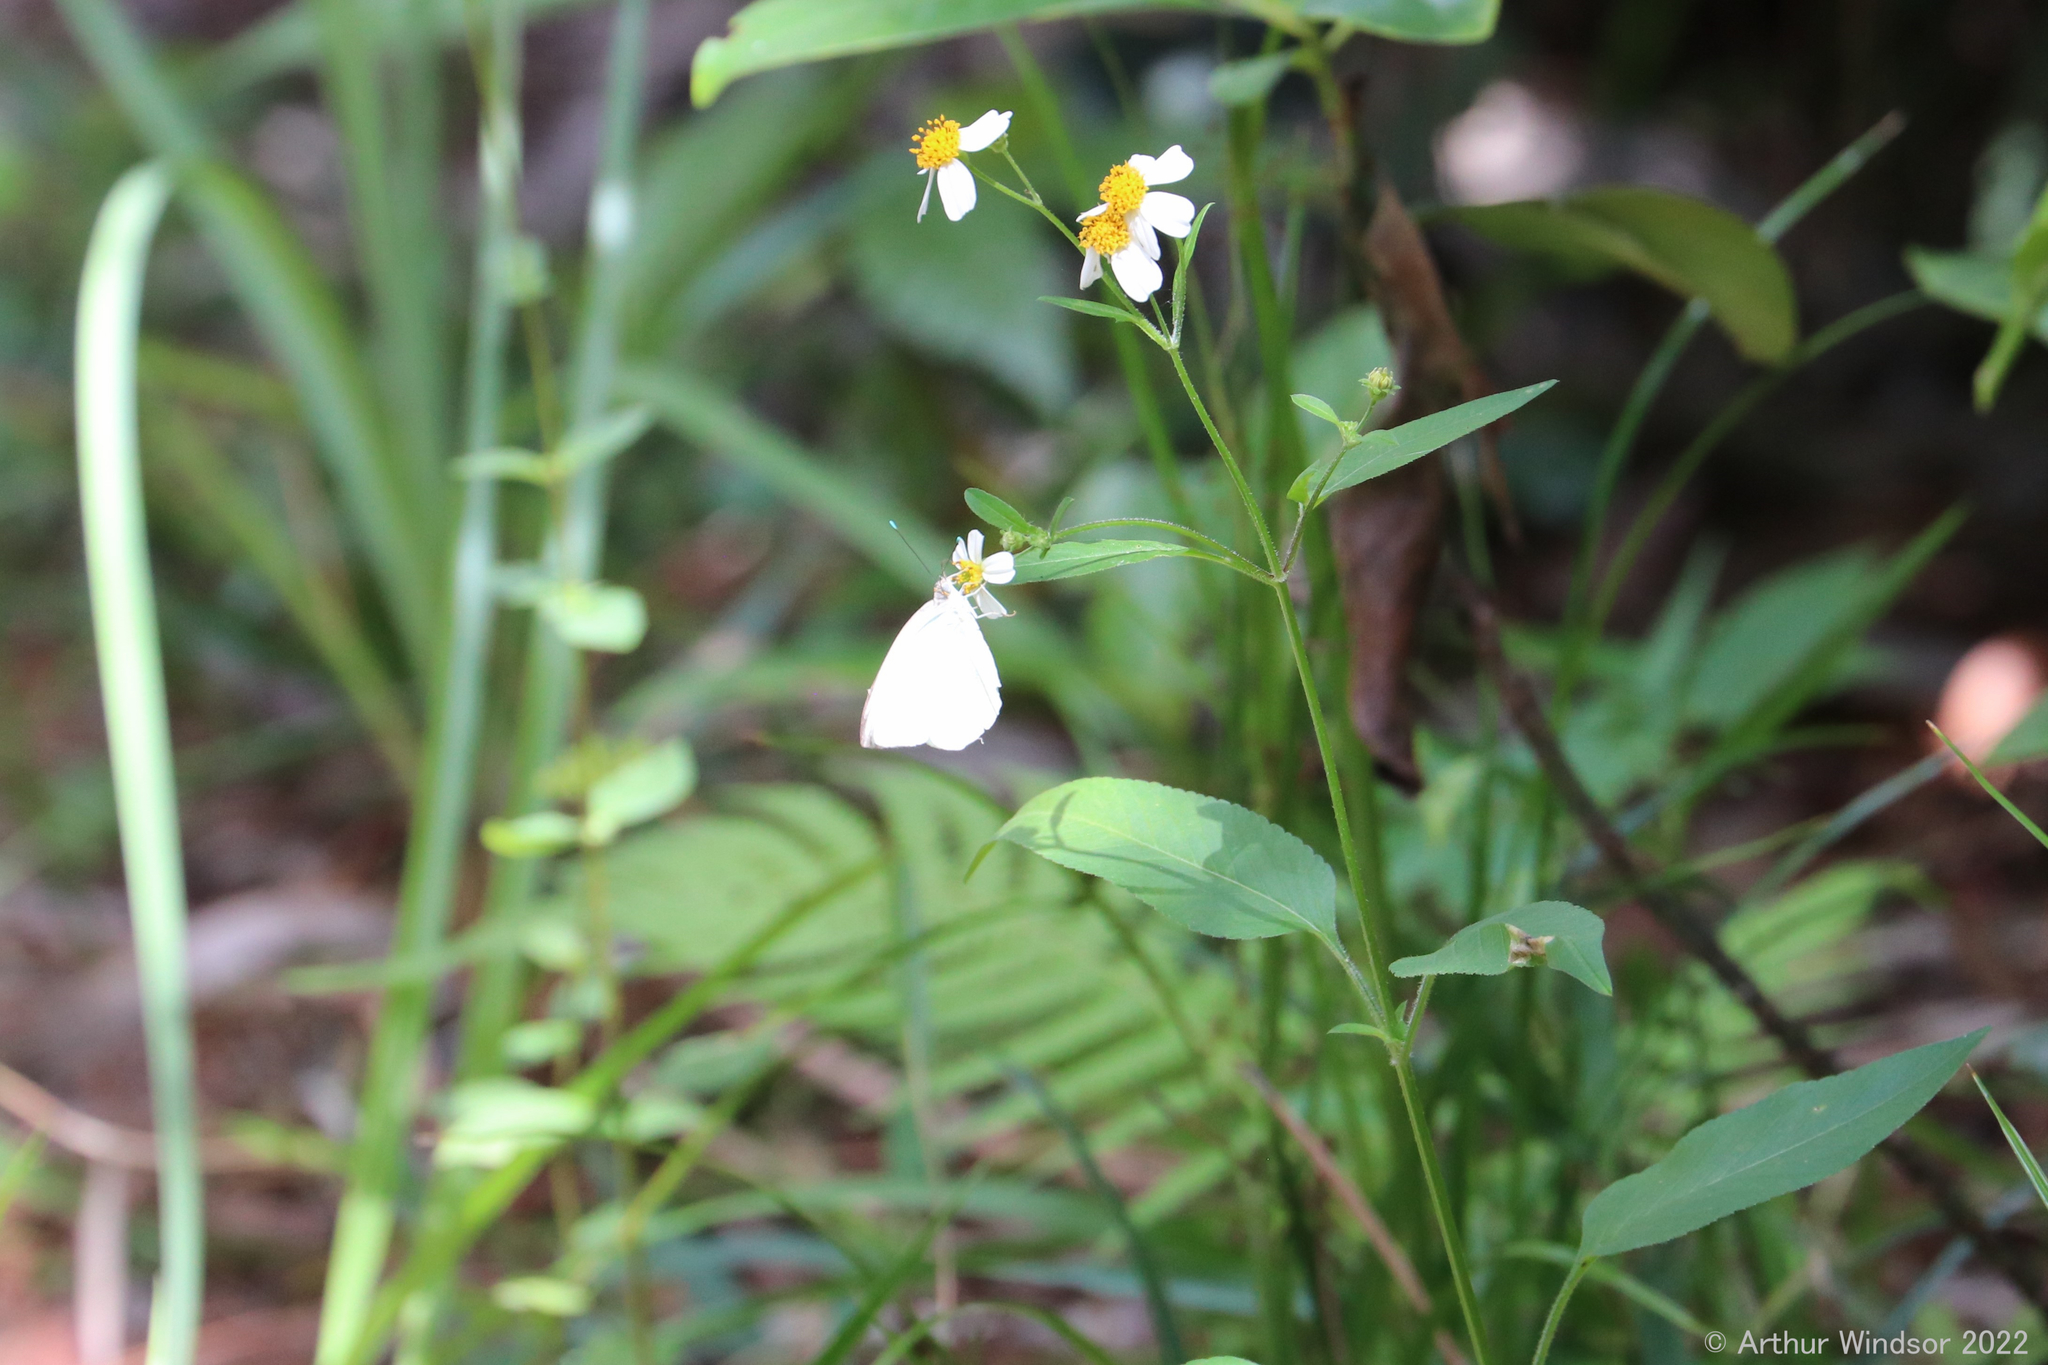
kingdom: Animalia
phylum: Arthropoda
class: Insecta
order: Lepidoptera
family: Pieridae
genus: Ascia
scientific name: Ascia monuste
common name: Great southern white
